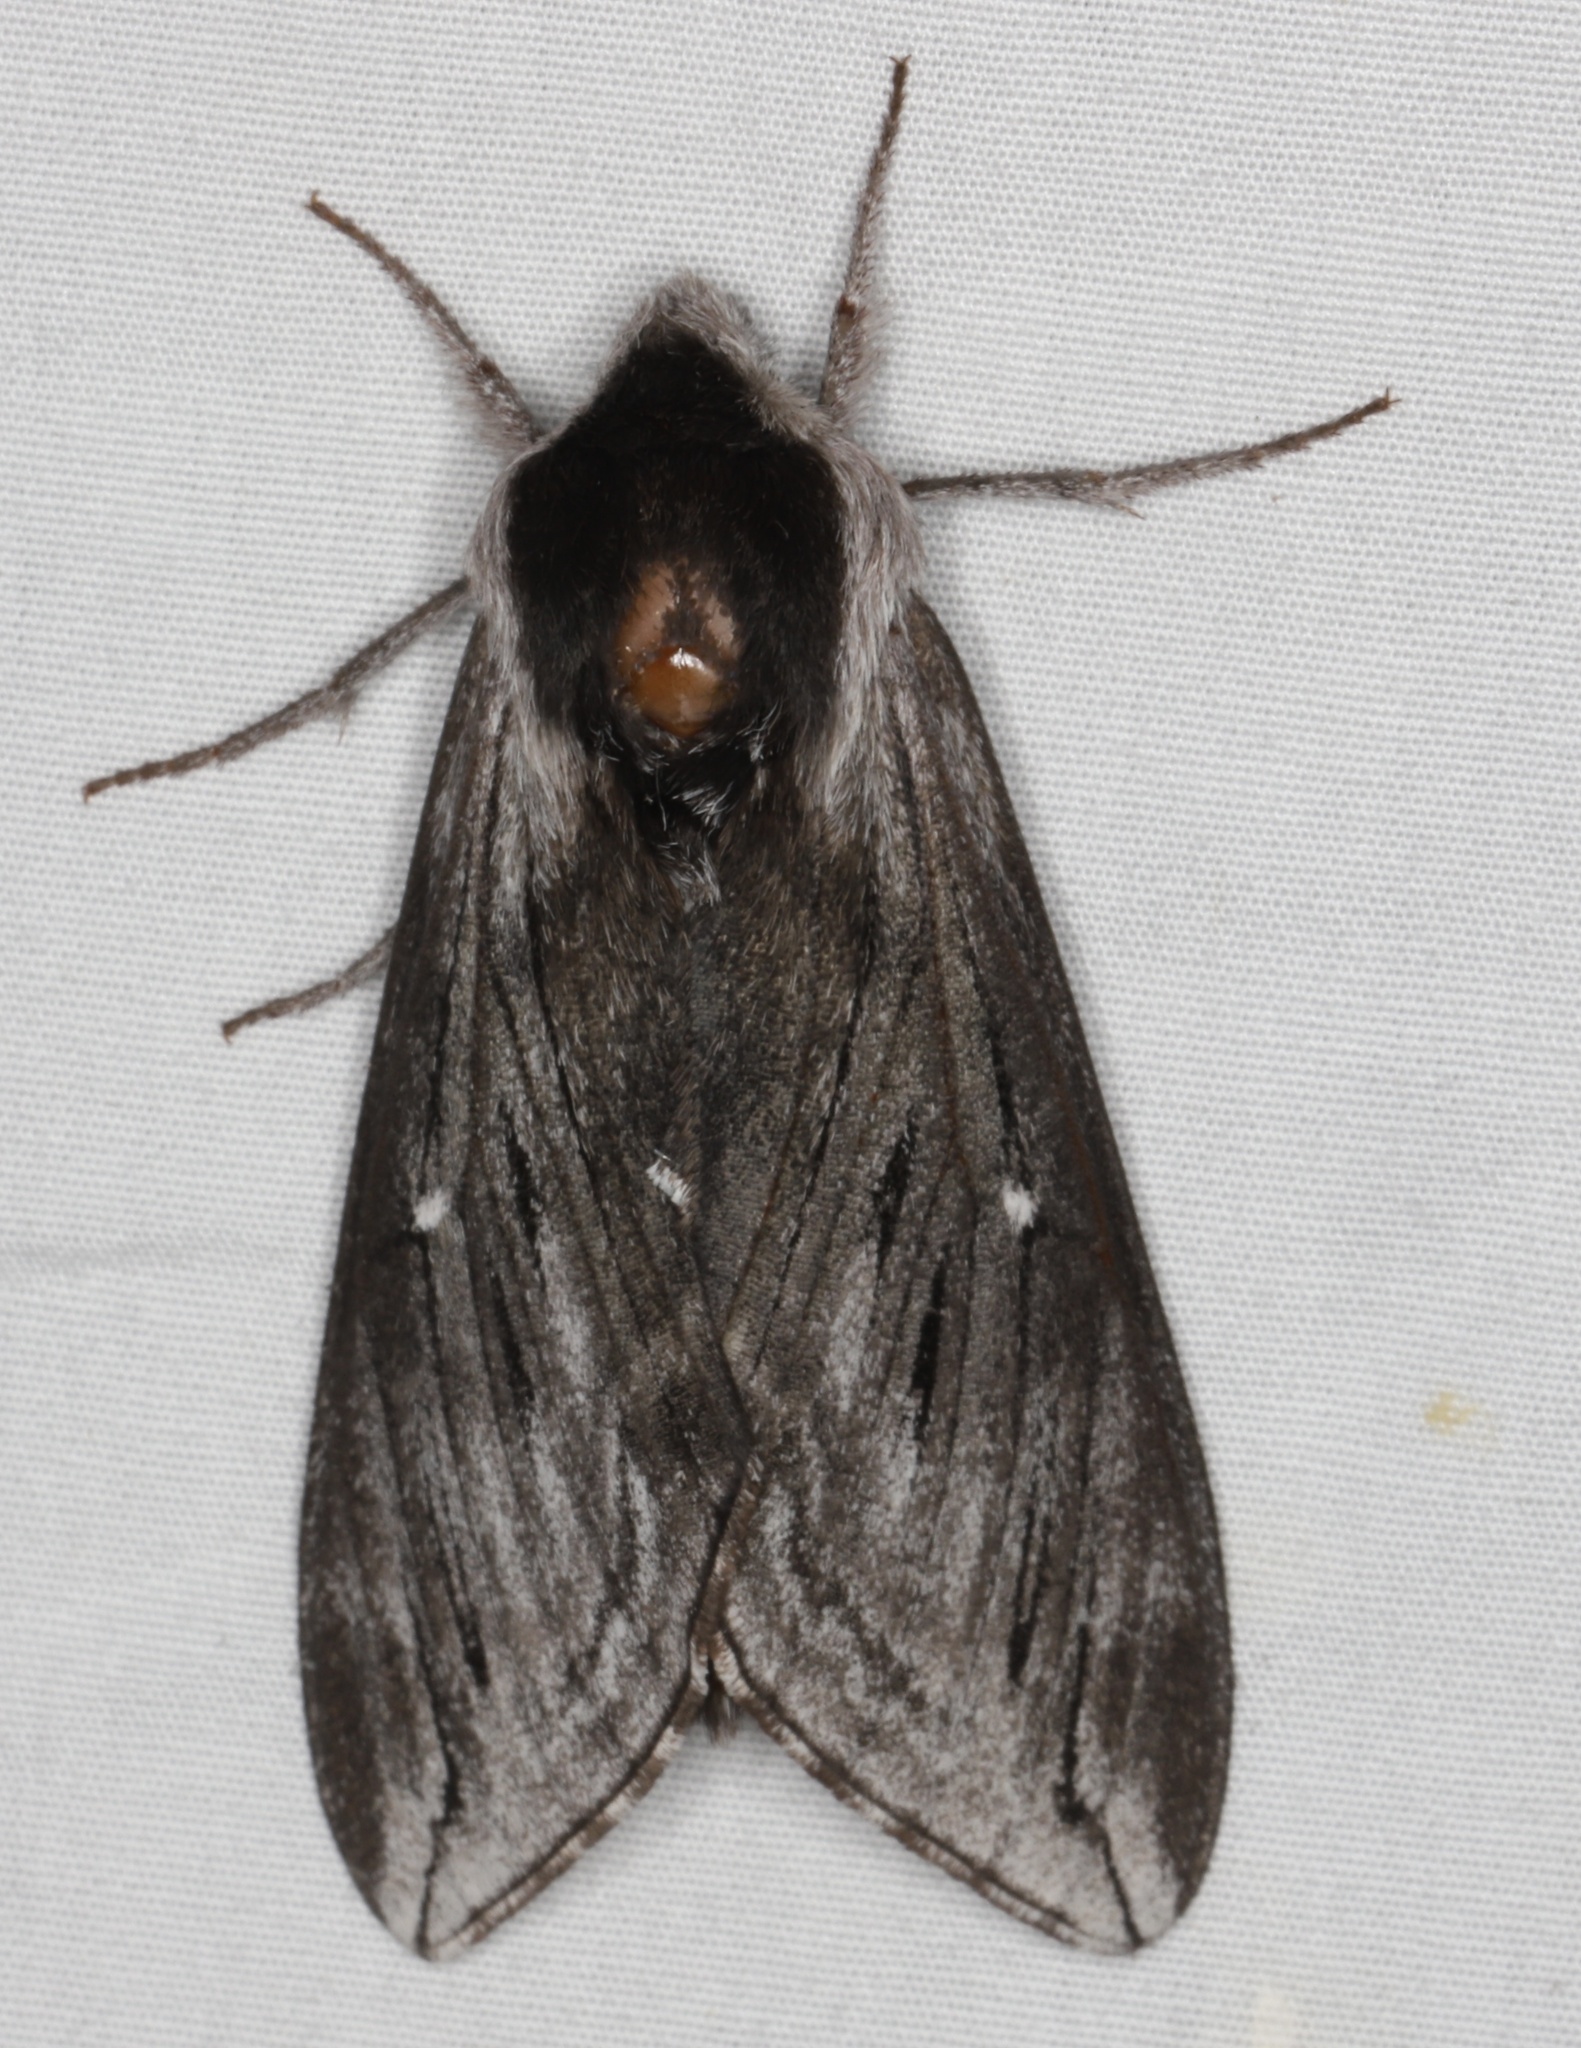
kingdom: Animalia
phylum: Arthropoda
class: Insecta
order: Lepidoptera
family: Sphingidae
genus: Sphinx
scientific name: Sphinx poecila
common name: Northern apple sphinx
